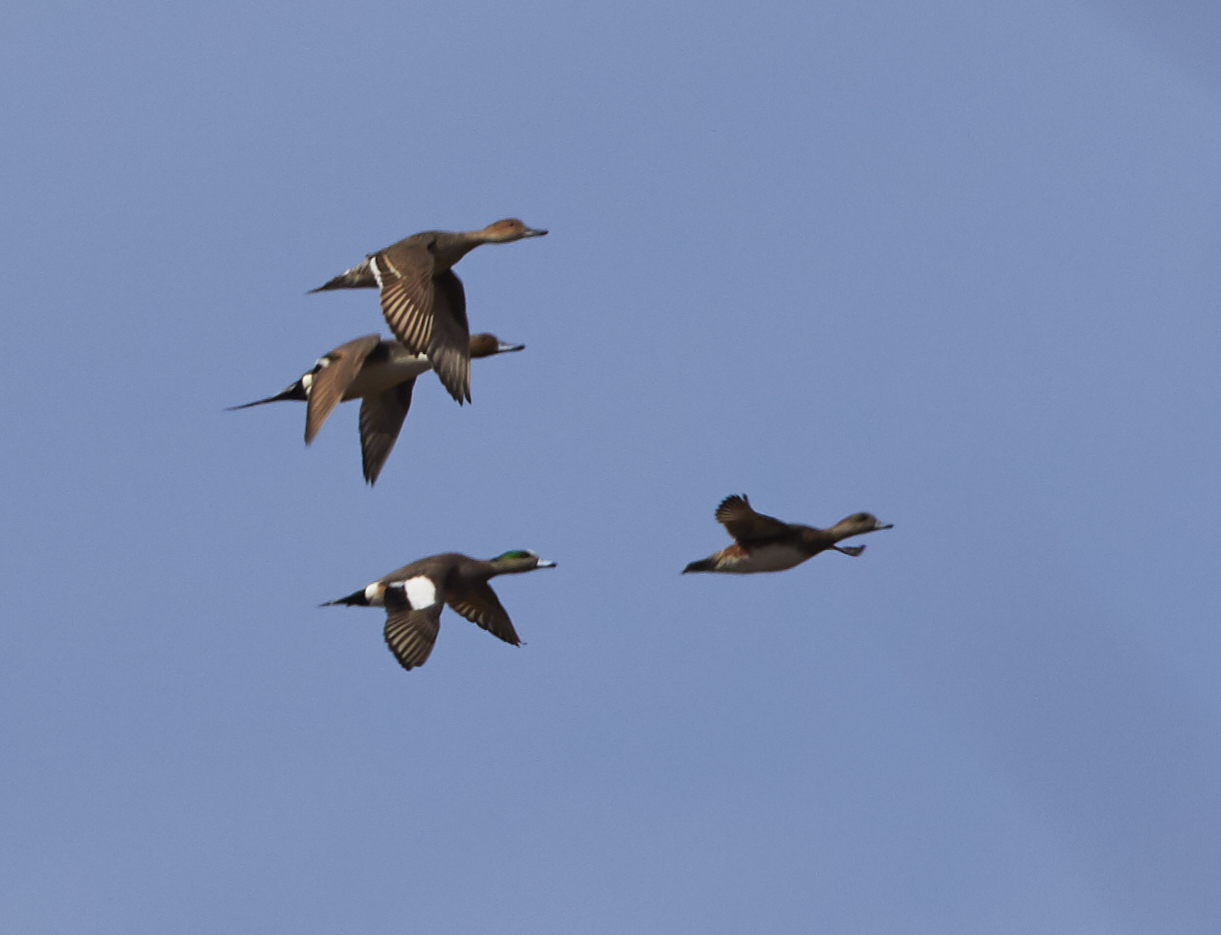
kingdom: Animalia
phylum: Chordata
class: Aves
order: Anseriformes
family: Anatidae
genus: Mareca
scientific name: Mareca americana
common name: American wigeon
